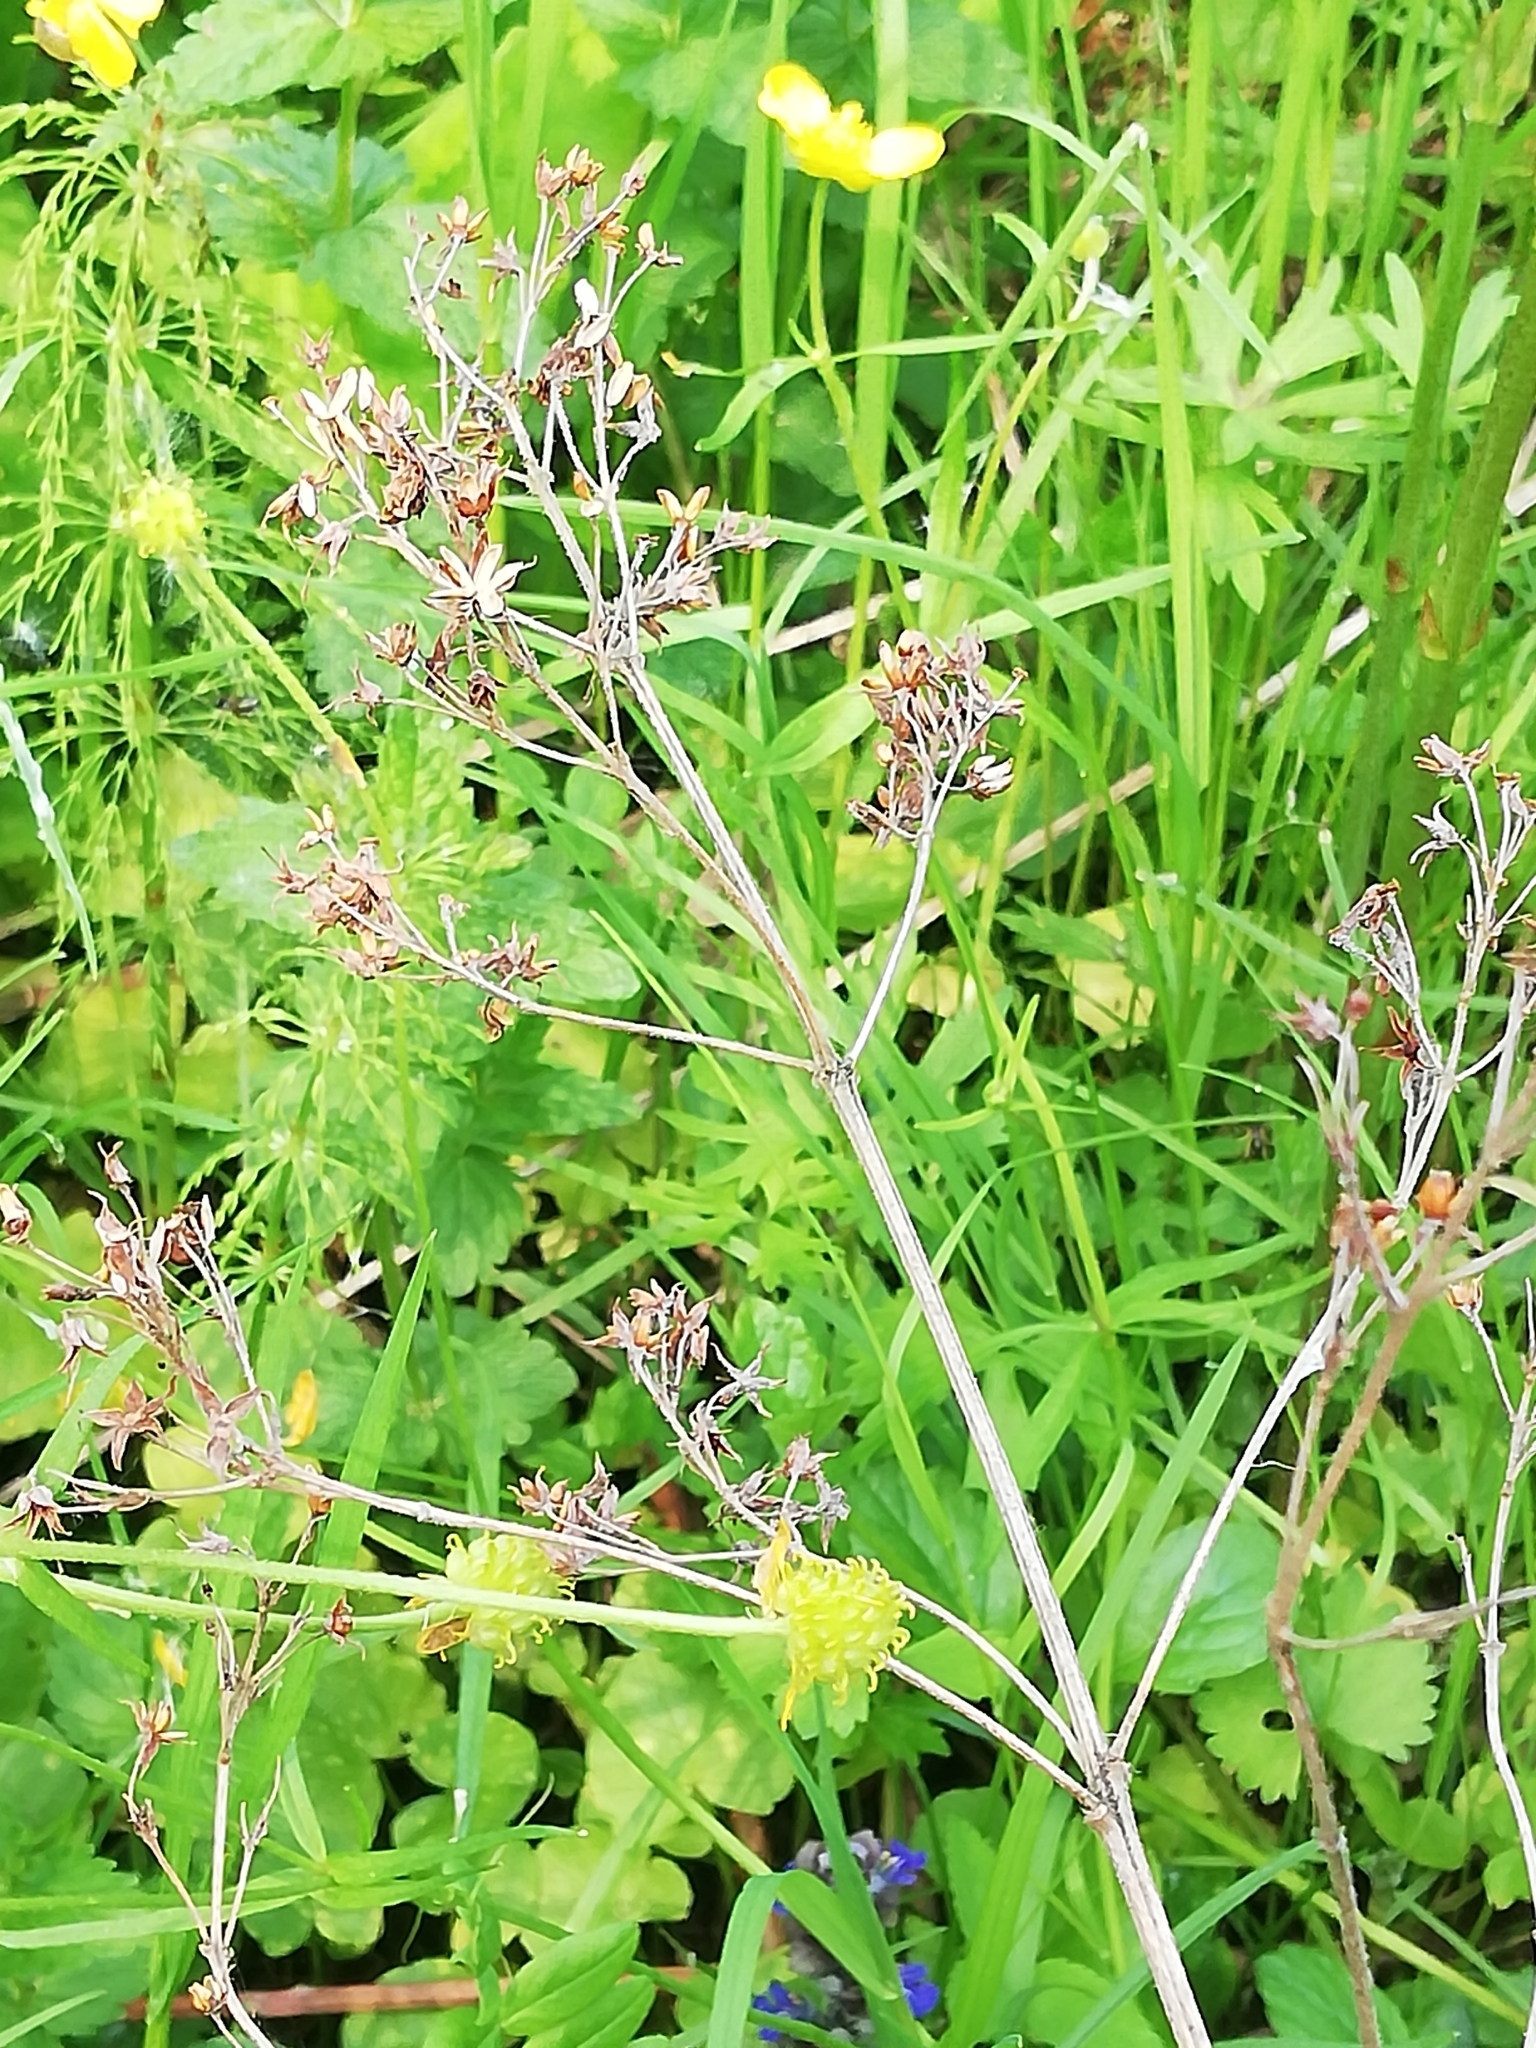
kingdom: Plantae
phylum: Tracheophyta
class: Magnoliopsida
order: Ericales
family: Primulaceae
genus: Lysimachia
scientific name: Lysimachia vulgaris
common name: Yellow loosestrife
